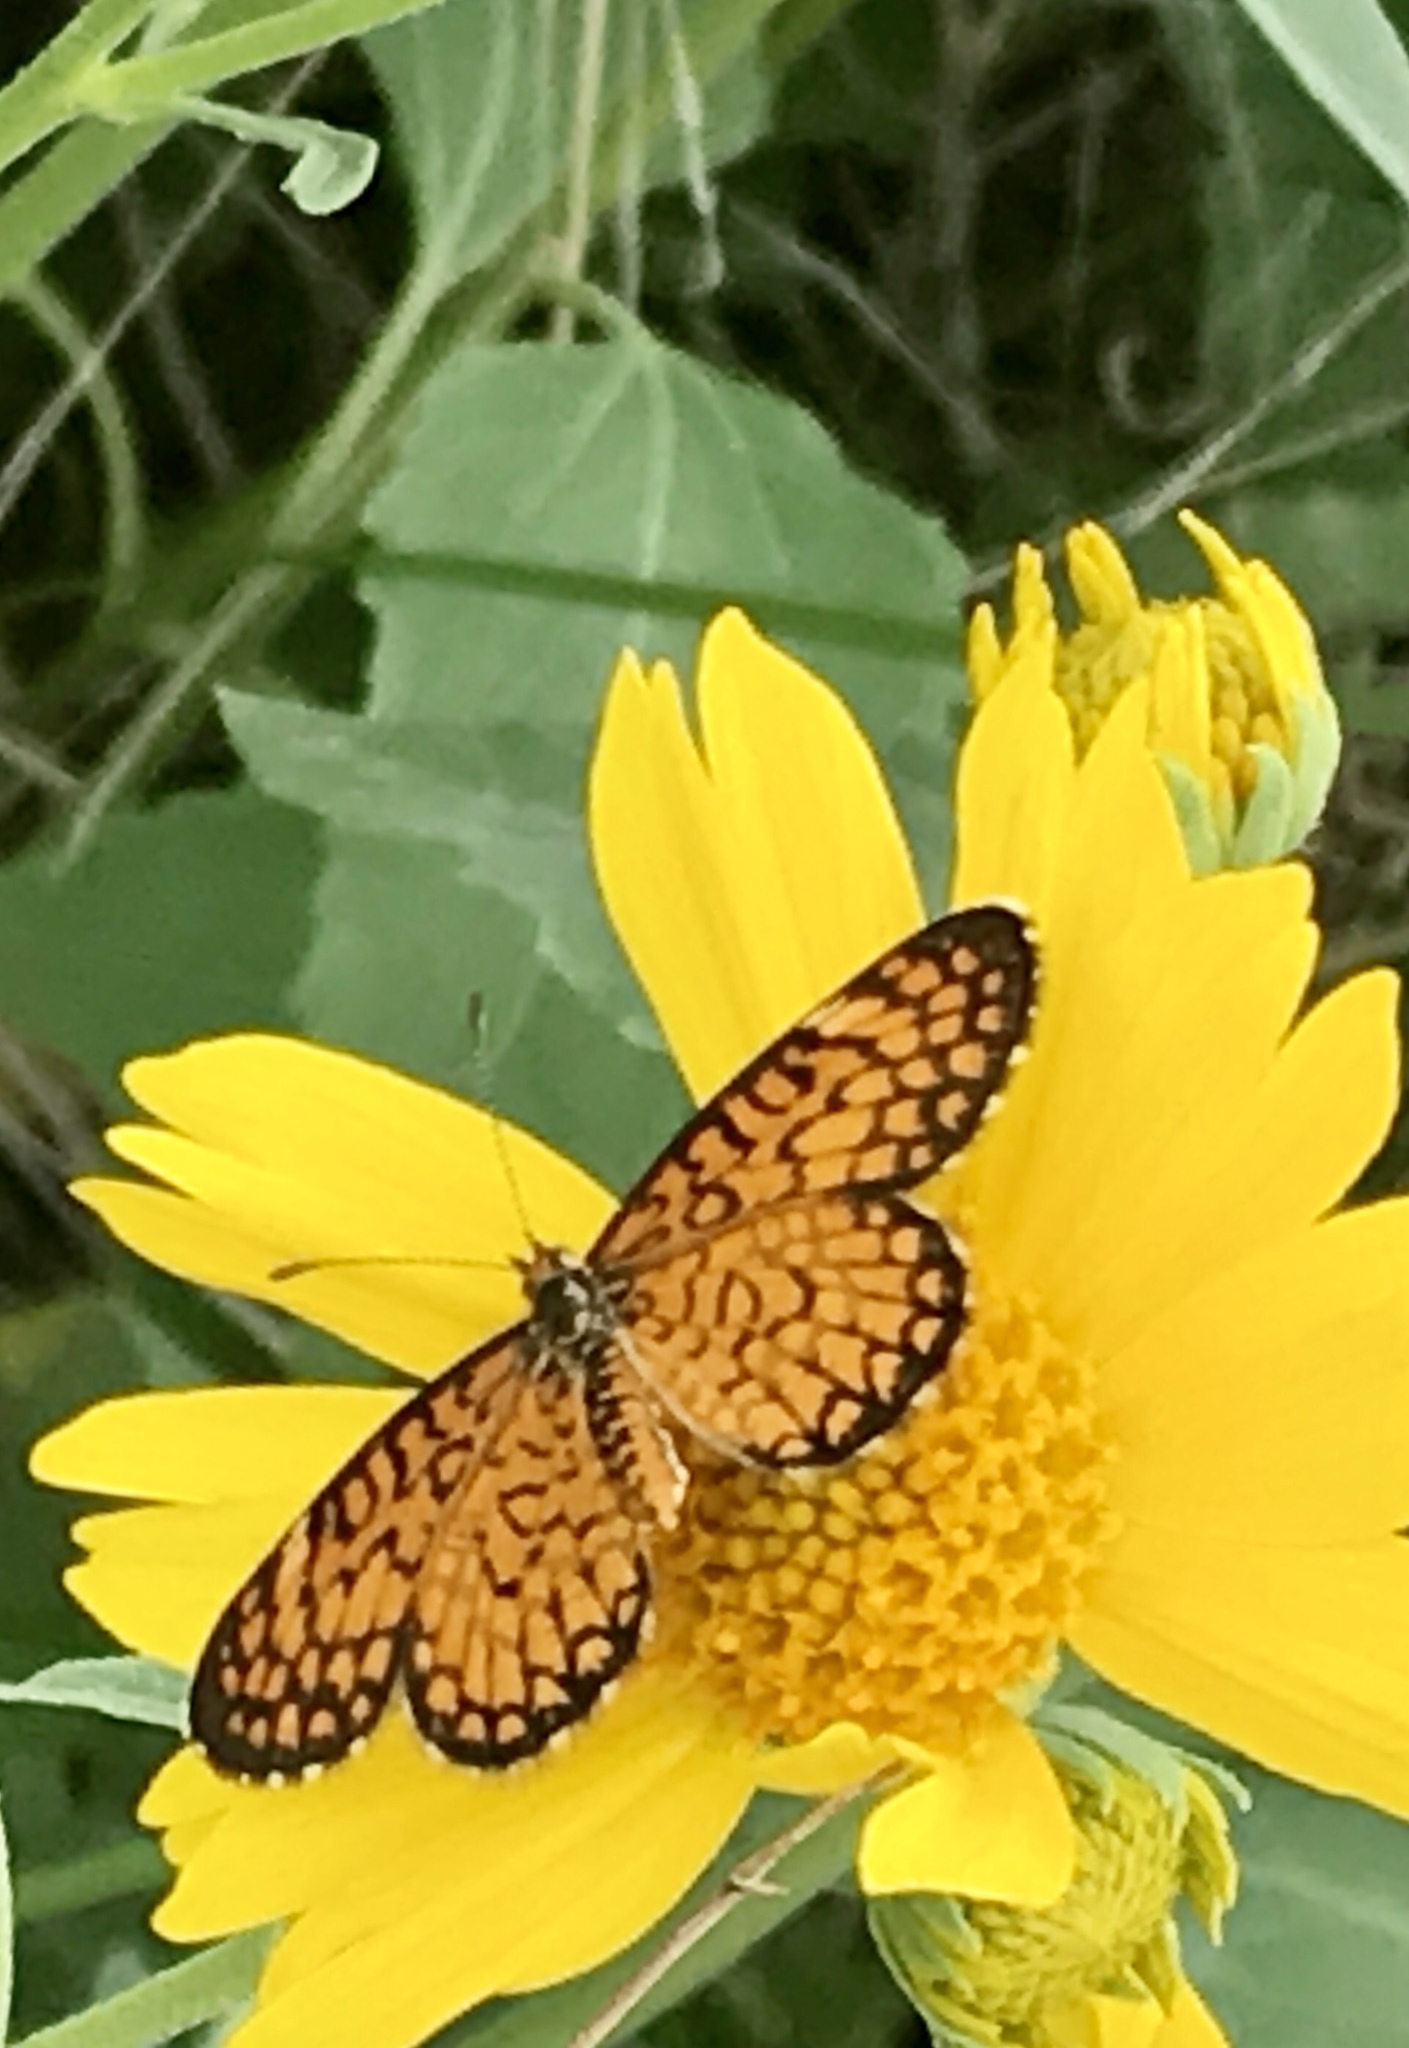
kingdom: Animalia
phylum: Arthropoda
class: Insecta
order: Lepidoptera
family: Nymphalidae
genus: Dymasia
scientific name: Dymasia dymas
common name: Tiny checkerspot
